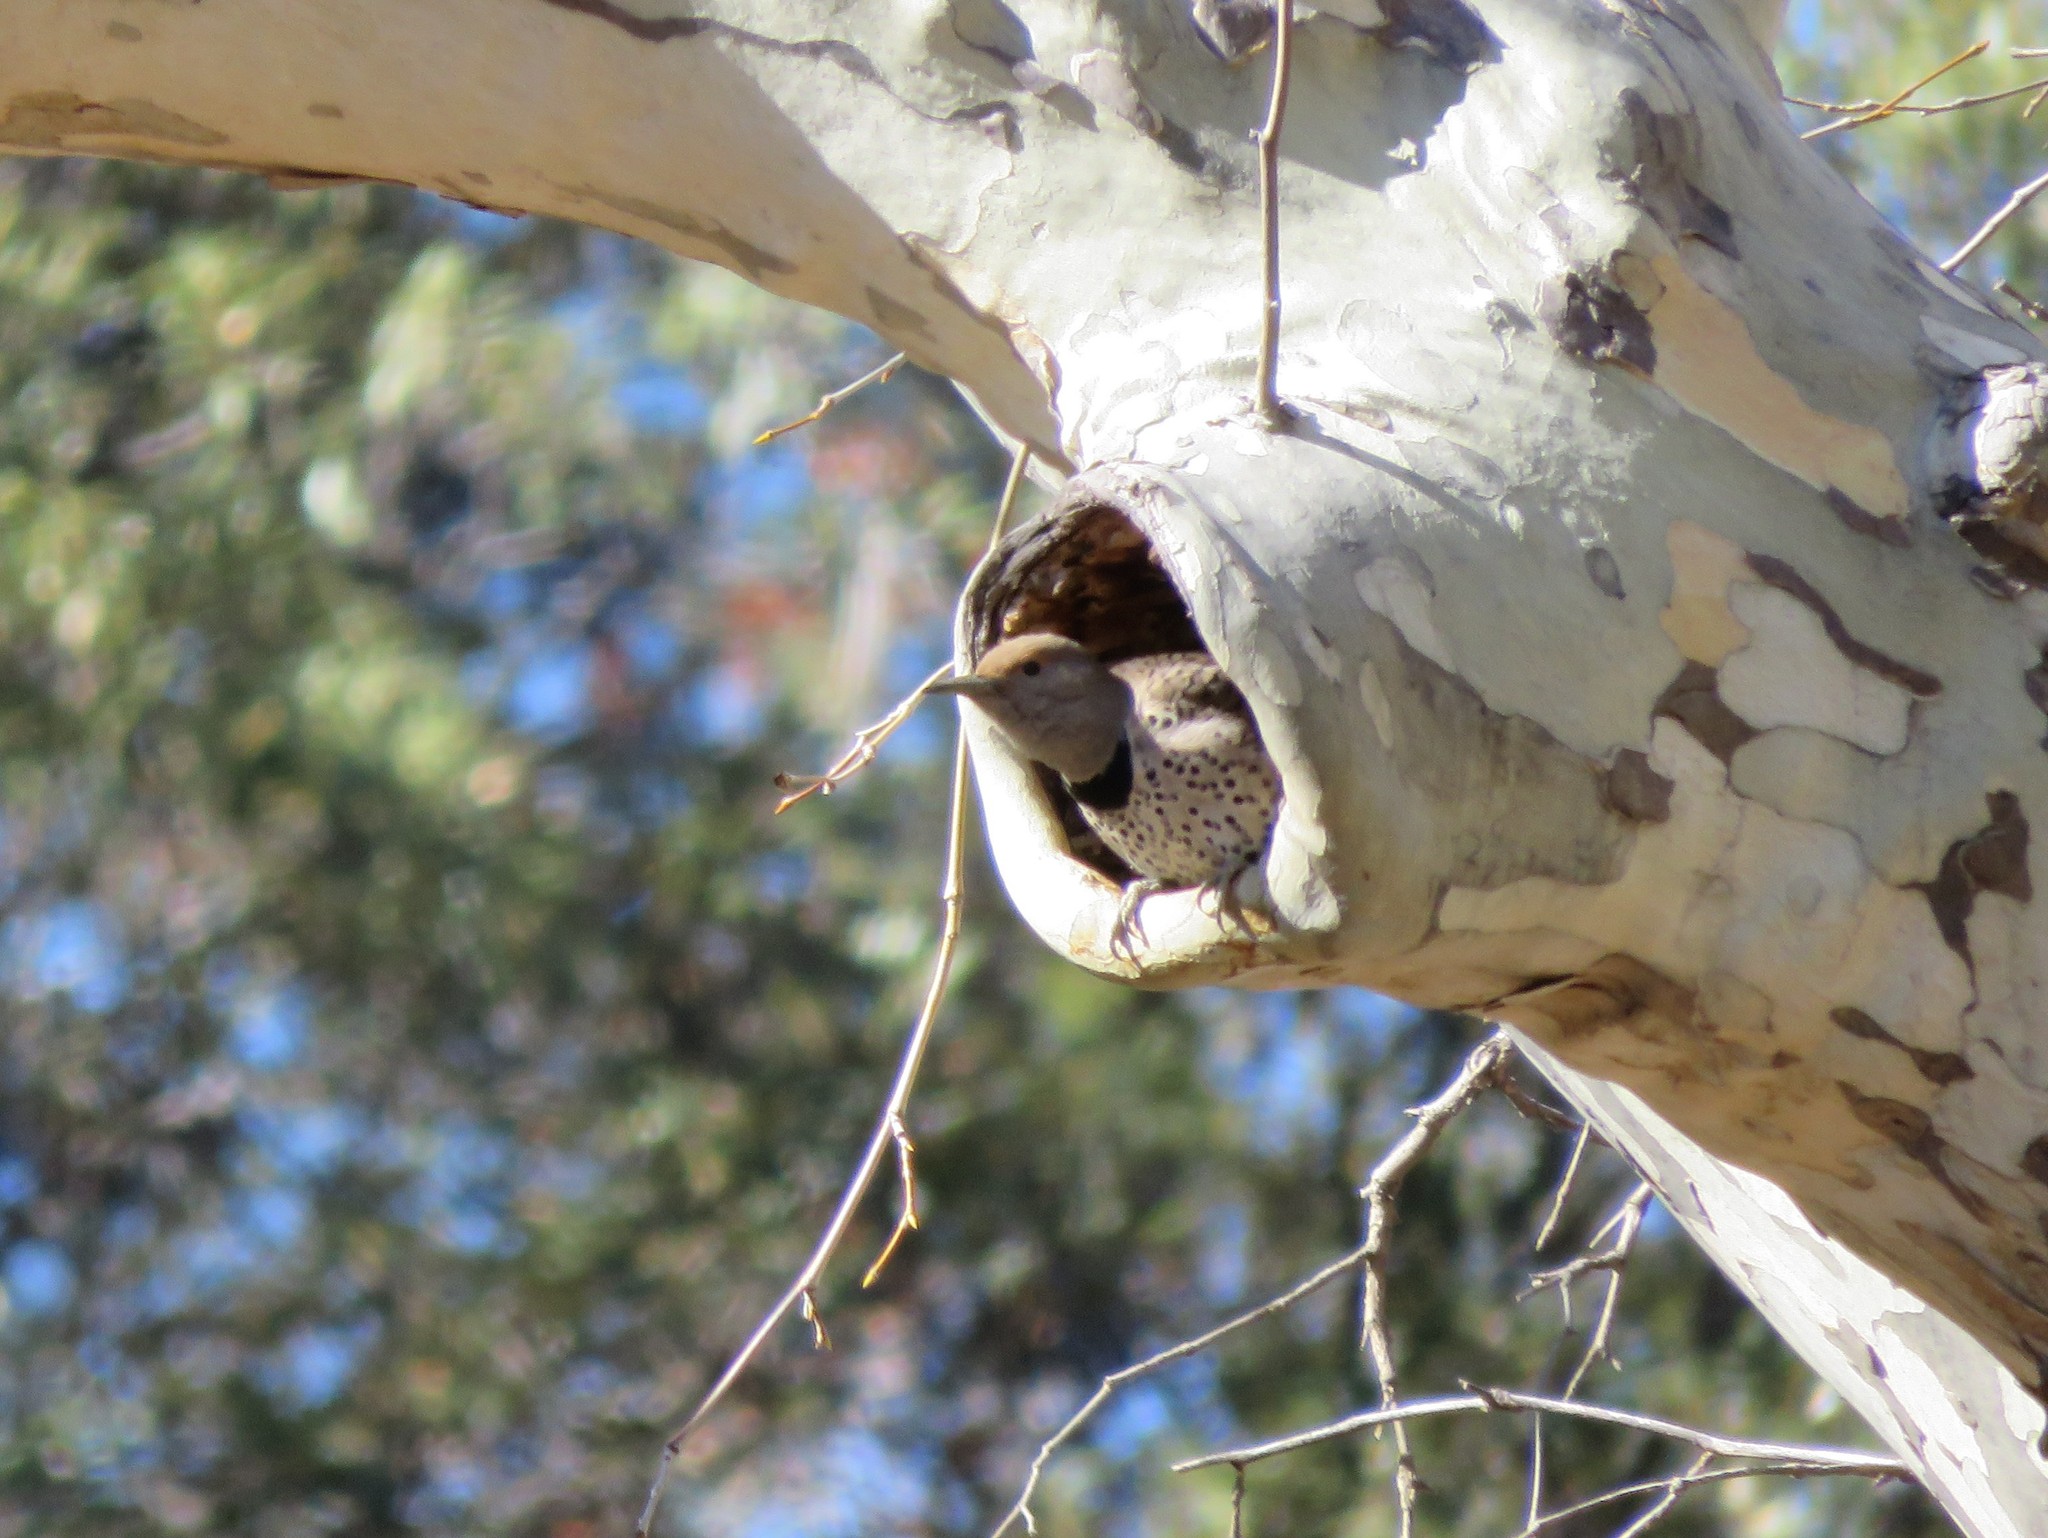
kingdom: Animalia
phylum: Chordata
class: Aves
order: Piciformes
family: Picidae
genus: Colaptes
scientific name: Colaptes auratus
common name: Northern flicker
